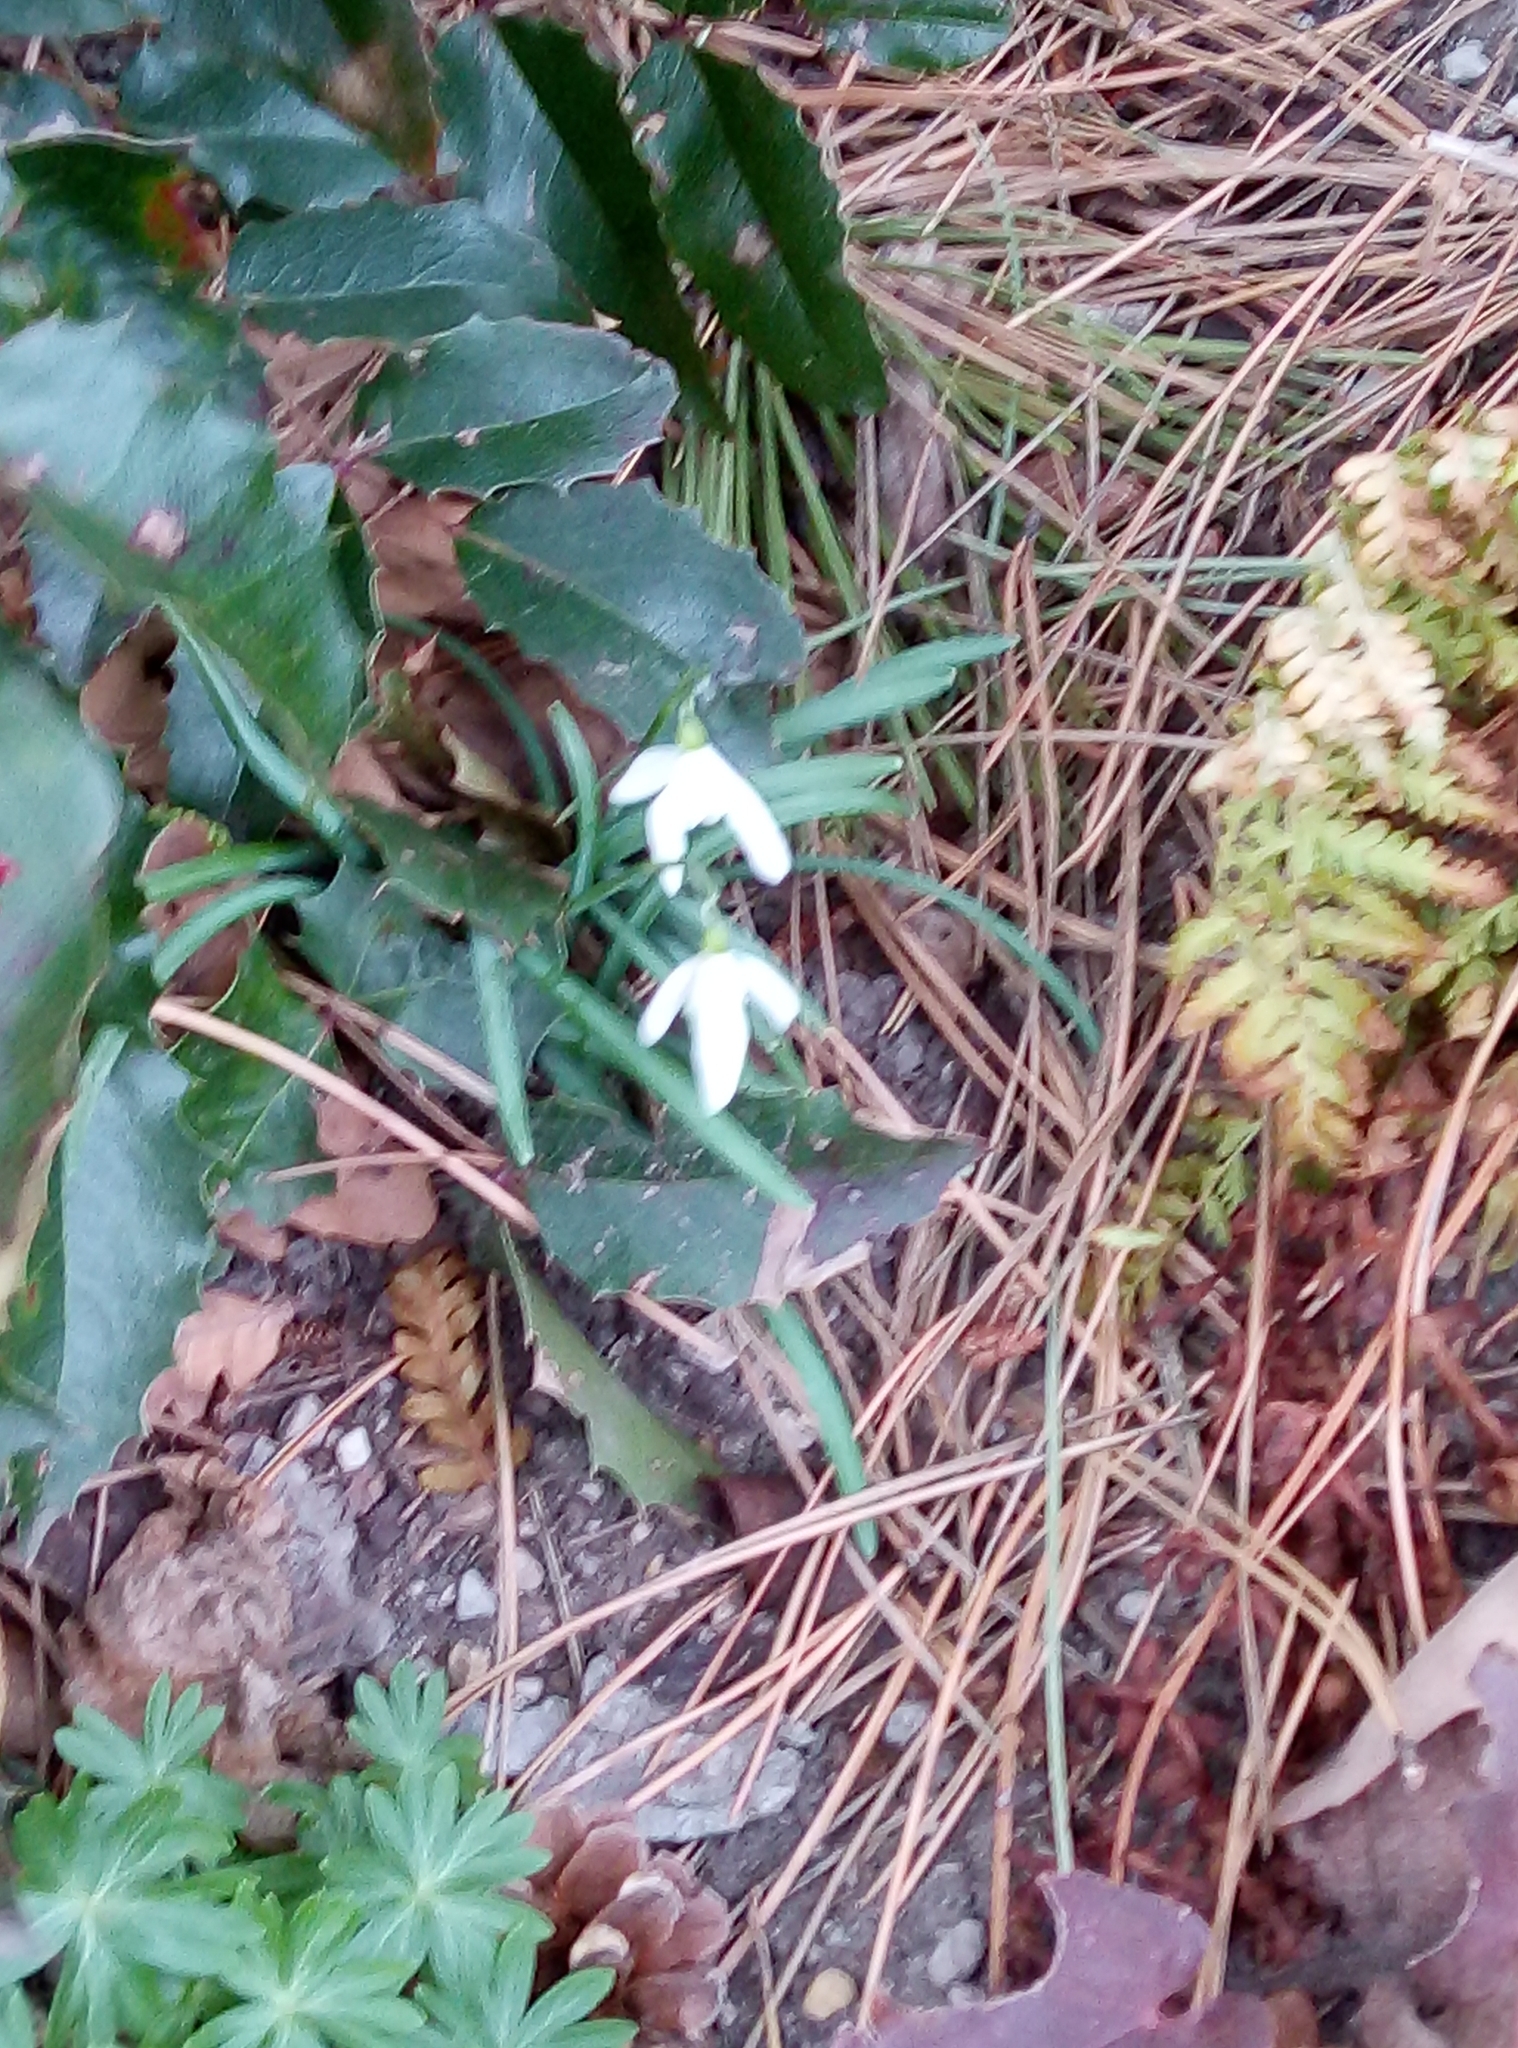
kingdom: Plantae
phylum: Tracheophyta
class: Liliopsida
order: Asparagales
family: Amaryllidaceae
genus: Galanthus
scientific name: Galanthus nivalis
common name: Snowdrop
